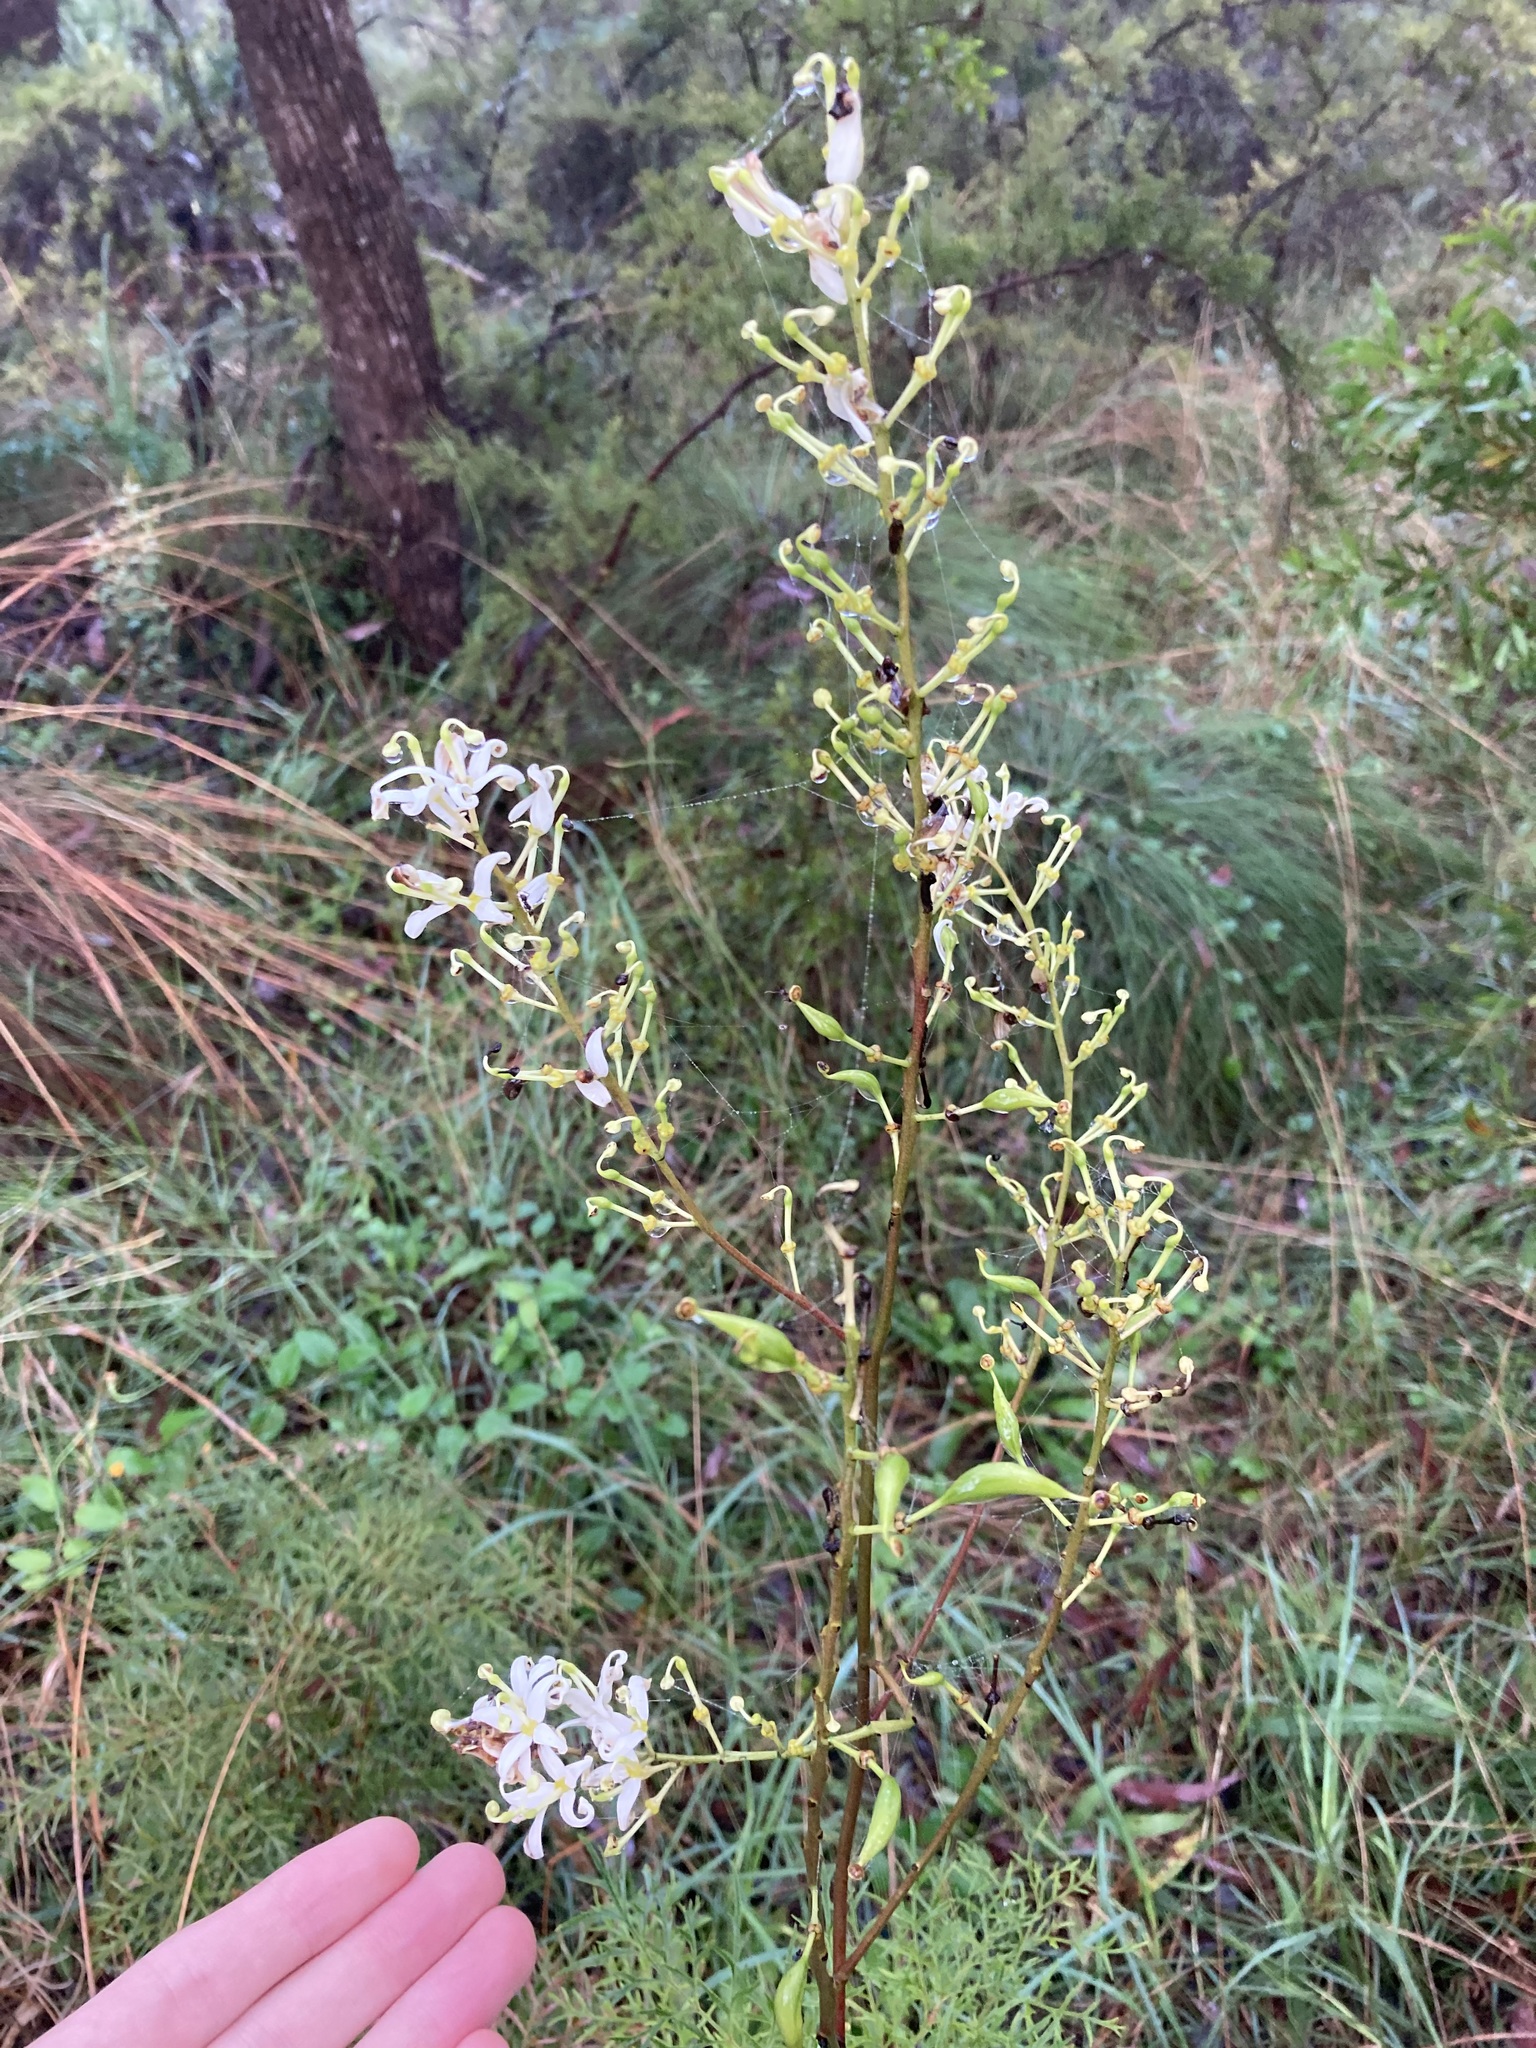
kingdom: Plantae
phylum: Tracheophyta
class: Magnoliopsida
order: Proteales
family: Proteaceae
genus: Lomatia
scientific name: Lomatia silaifolia
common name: Crinklebush
